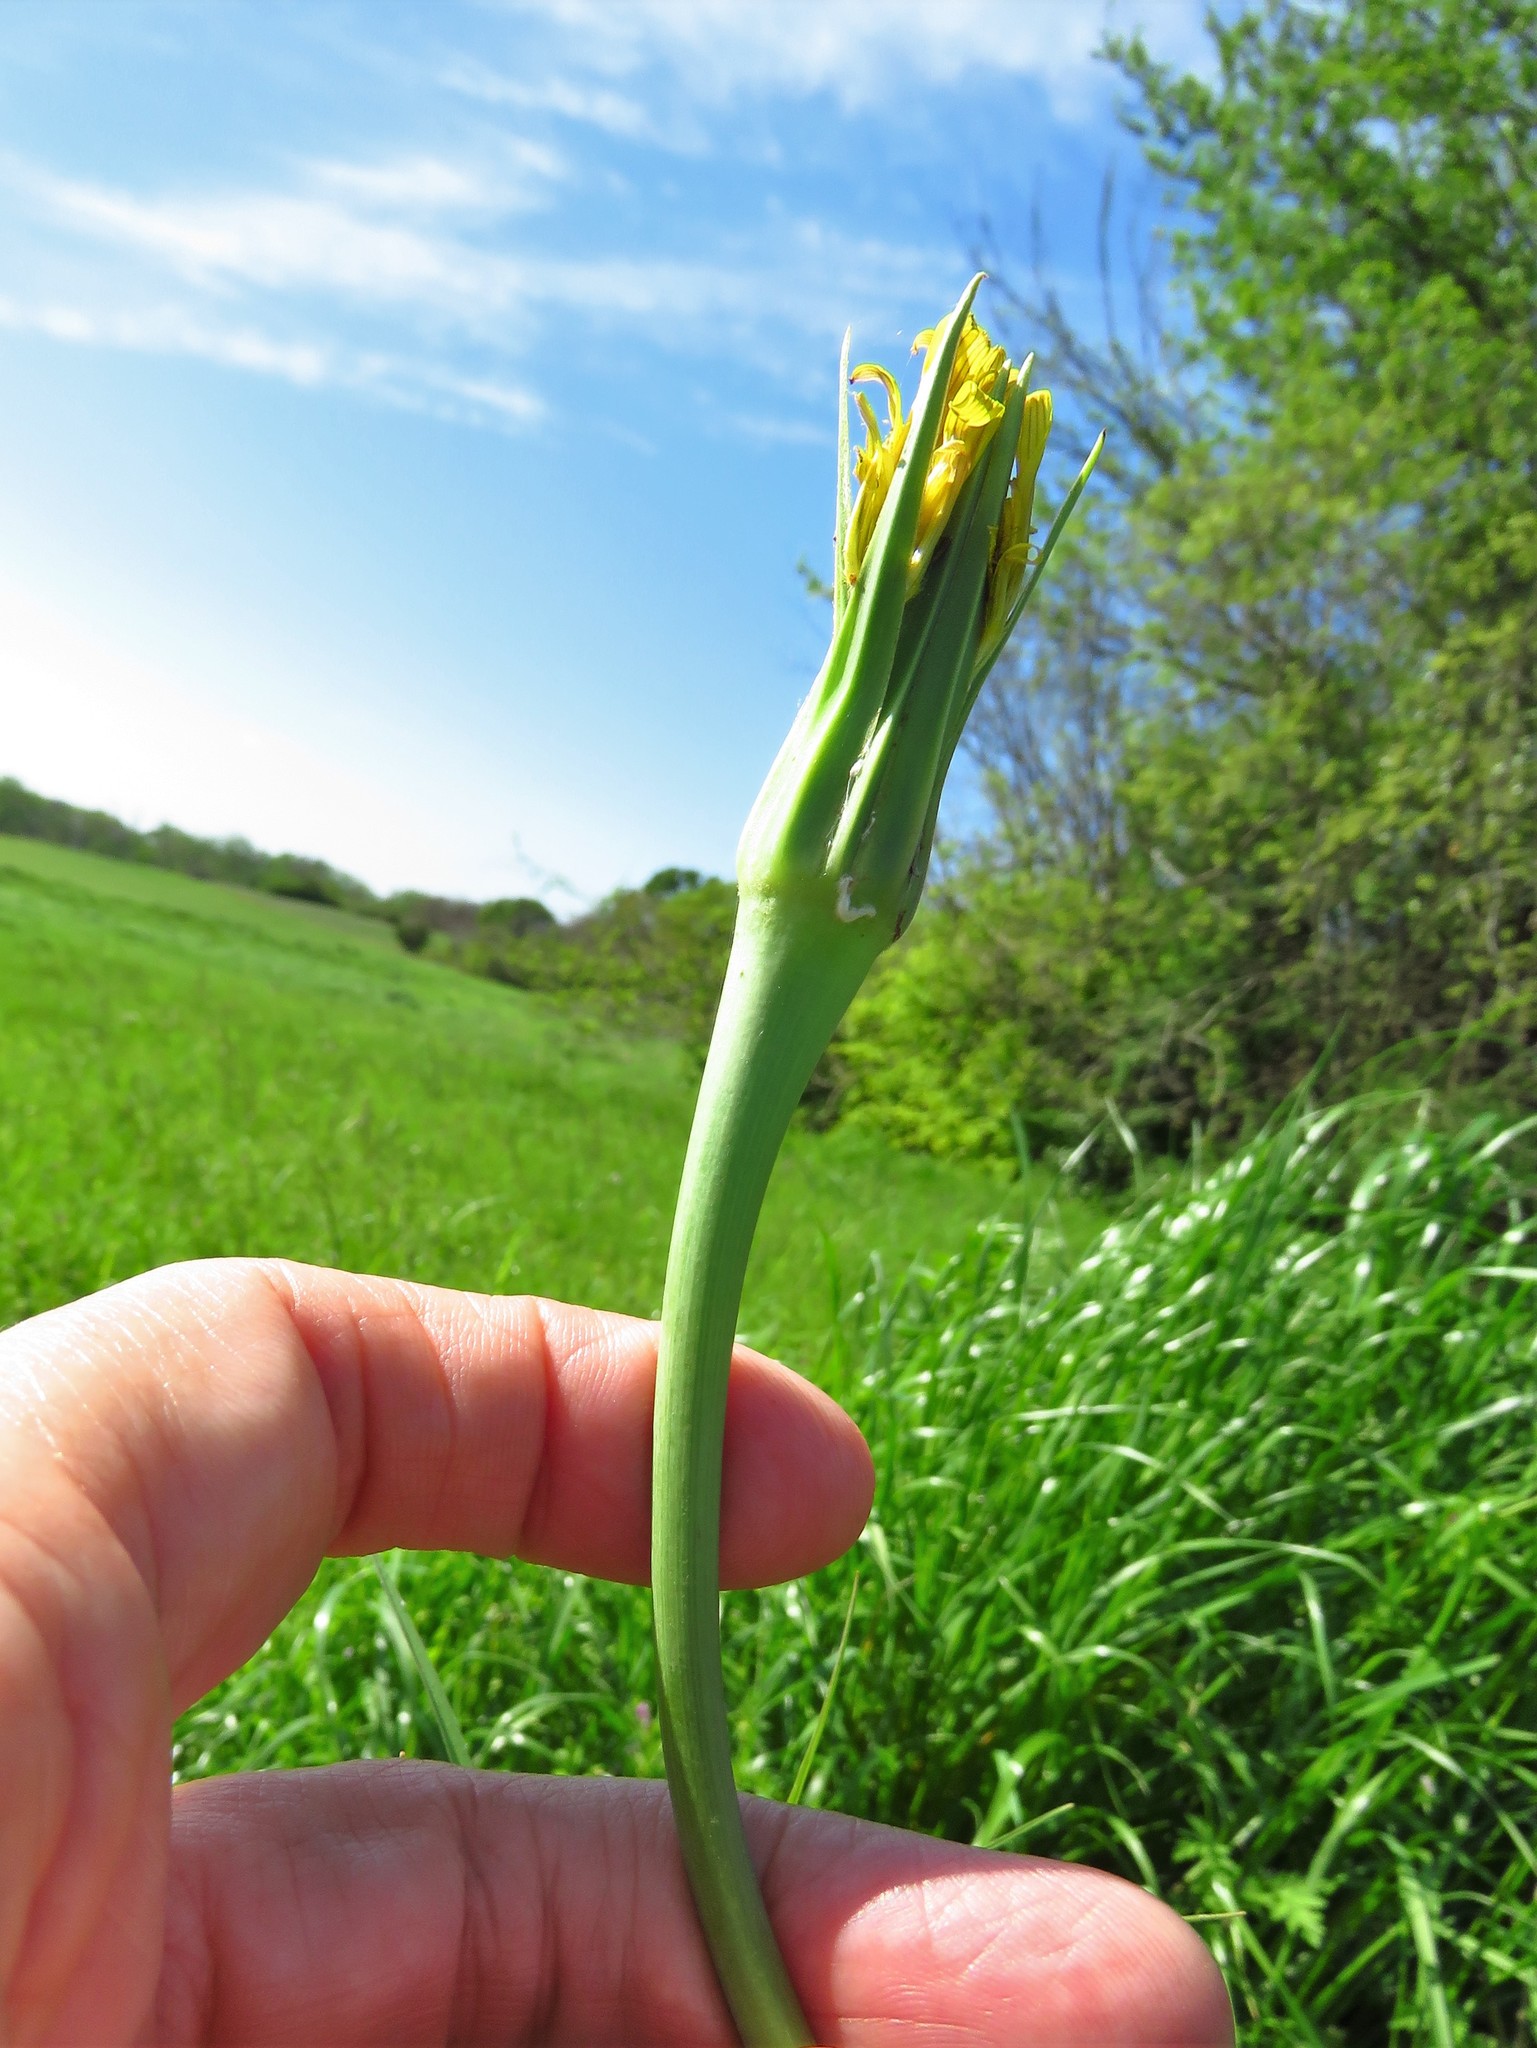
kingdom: Plantae
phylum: Tracheophyta
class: Magnoliopsida
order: Asterales
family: Asteraceae
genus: Tragopogon
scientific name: Tragopogon dubius
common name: Yellow salsify
